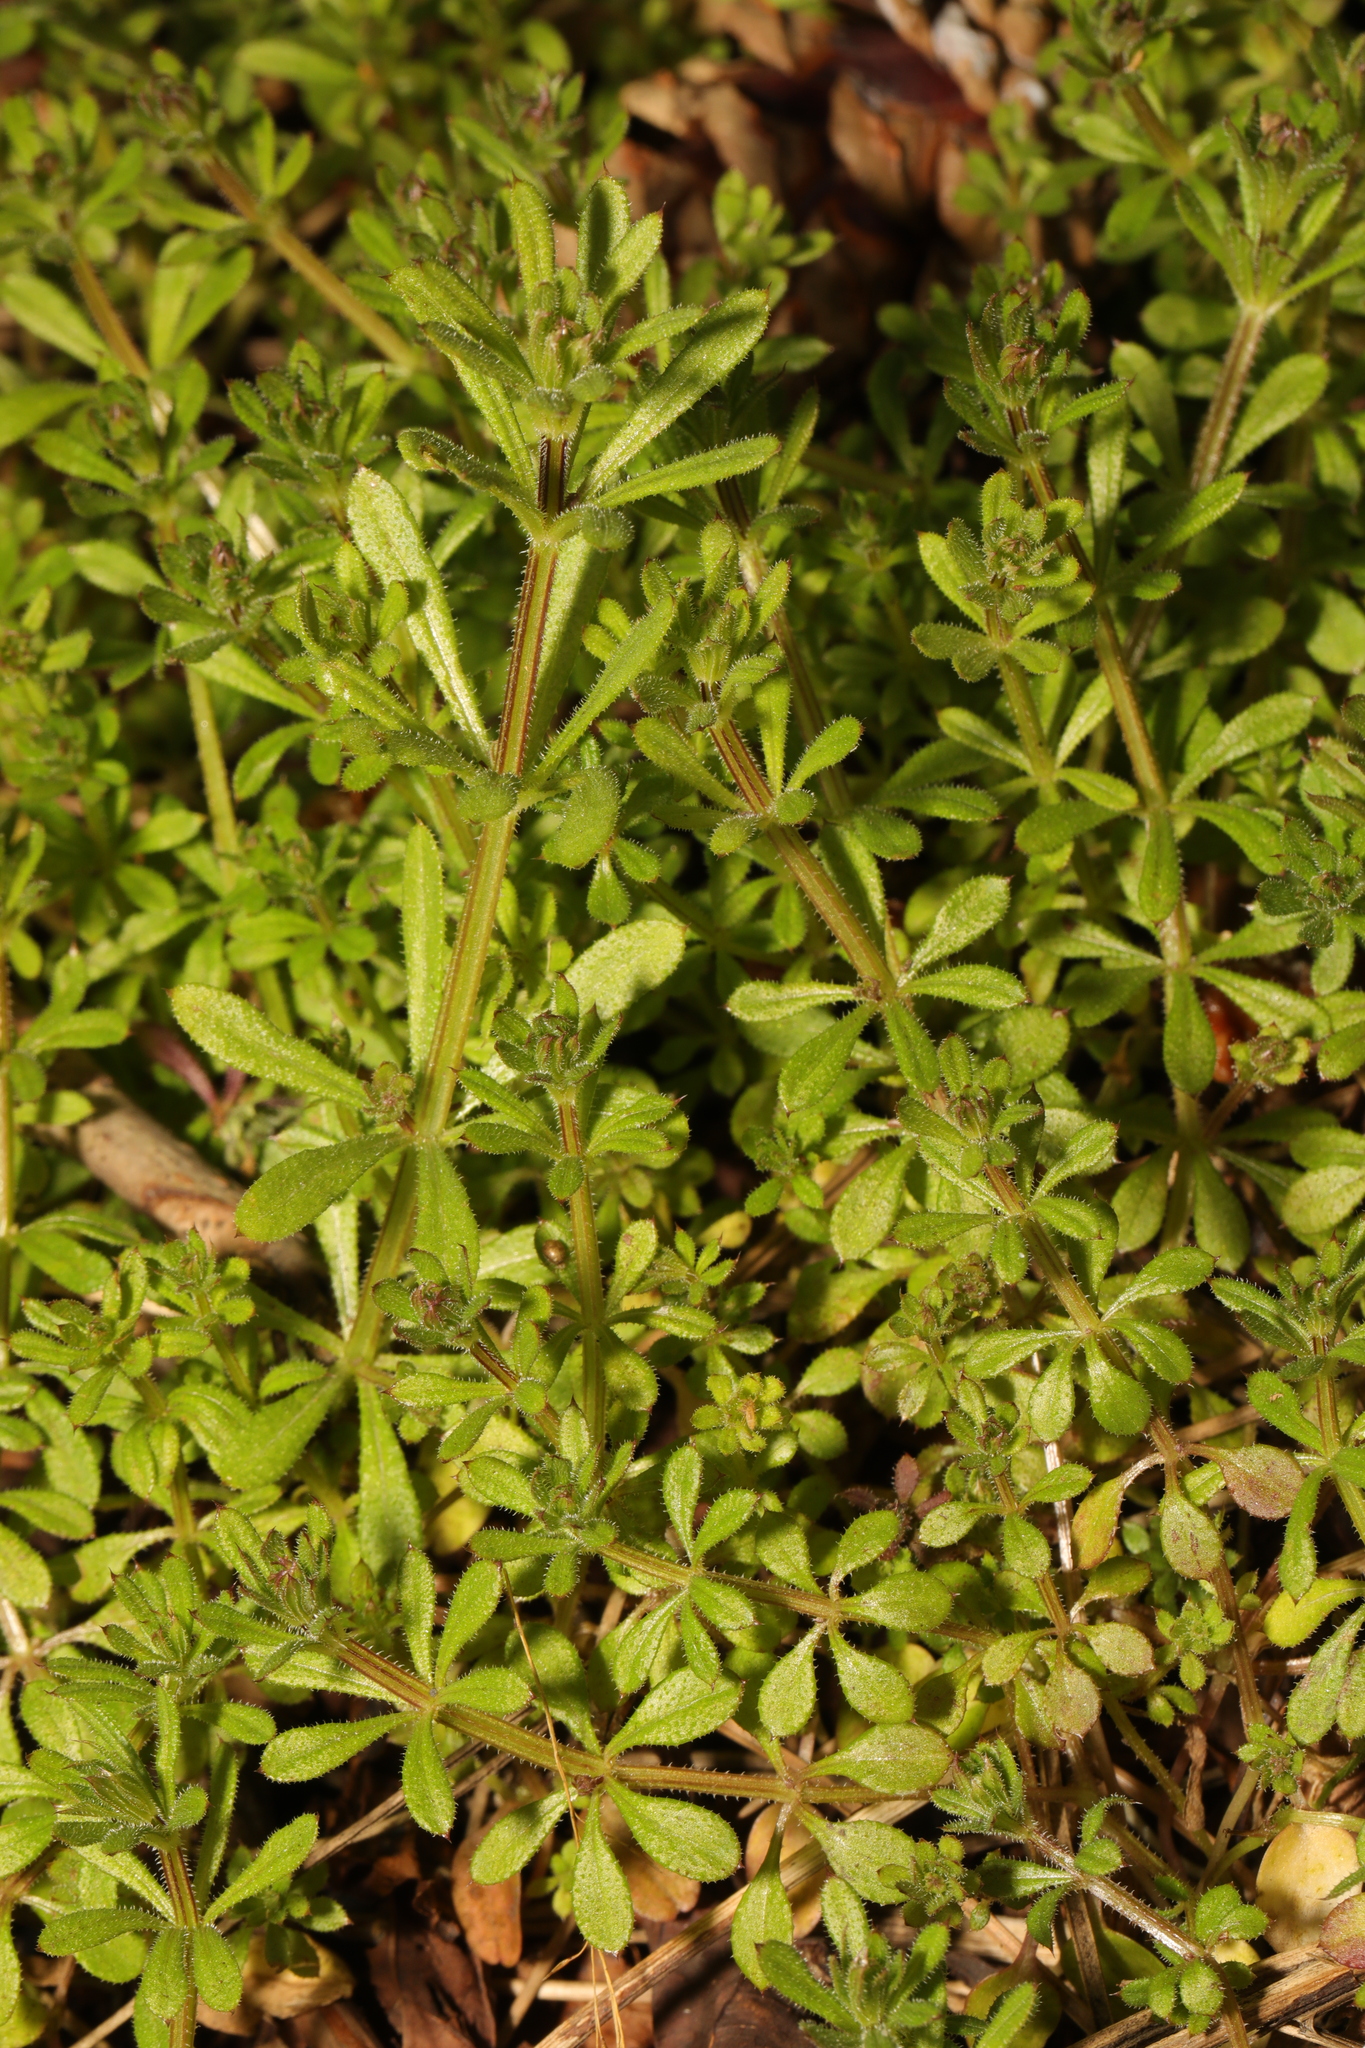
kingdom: Plantae
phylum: Tracheophyta
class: Magnoliopsida
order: Gentianales
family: Rubiaceae
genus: Galium
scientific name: Galium aparine
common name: Cleavers
